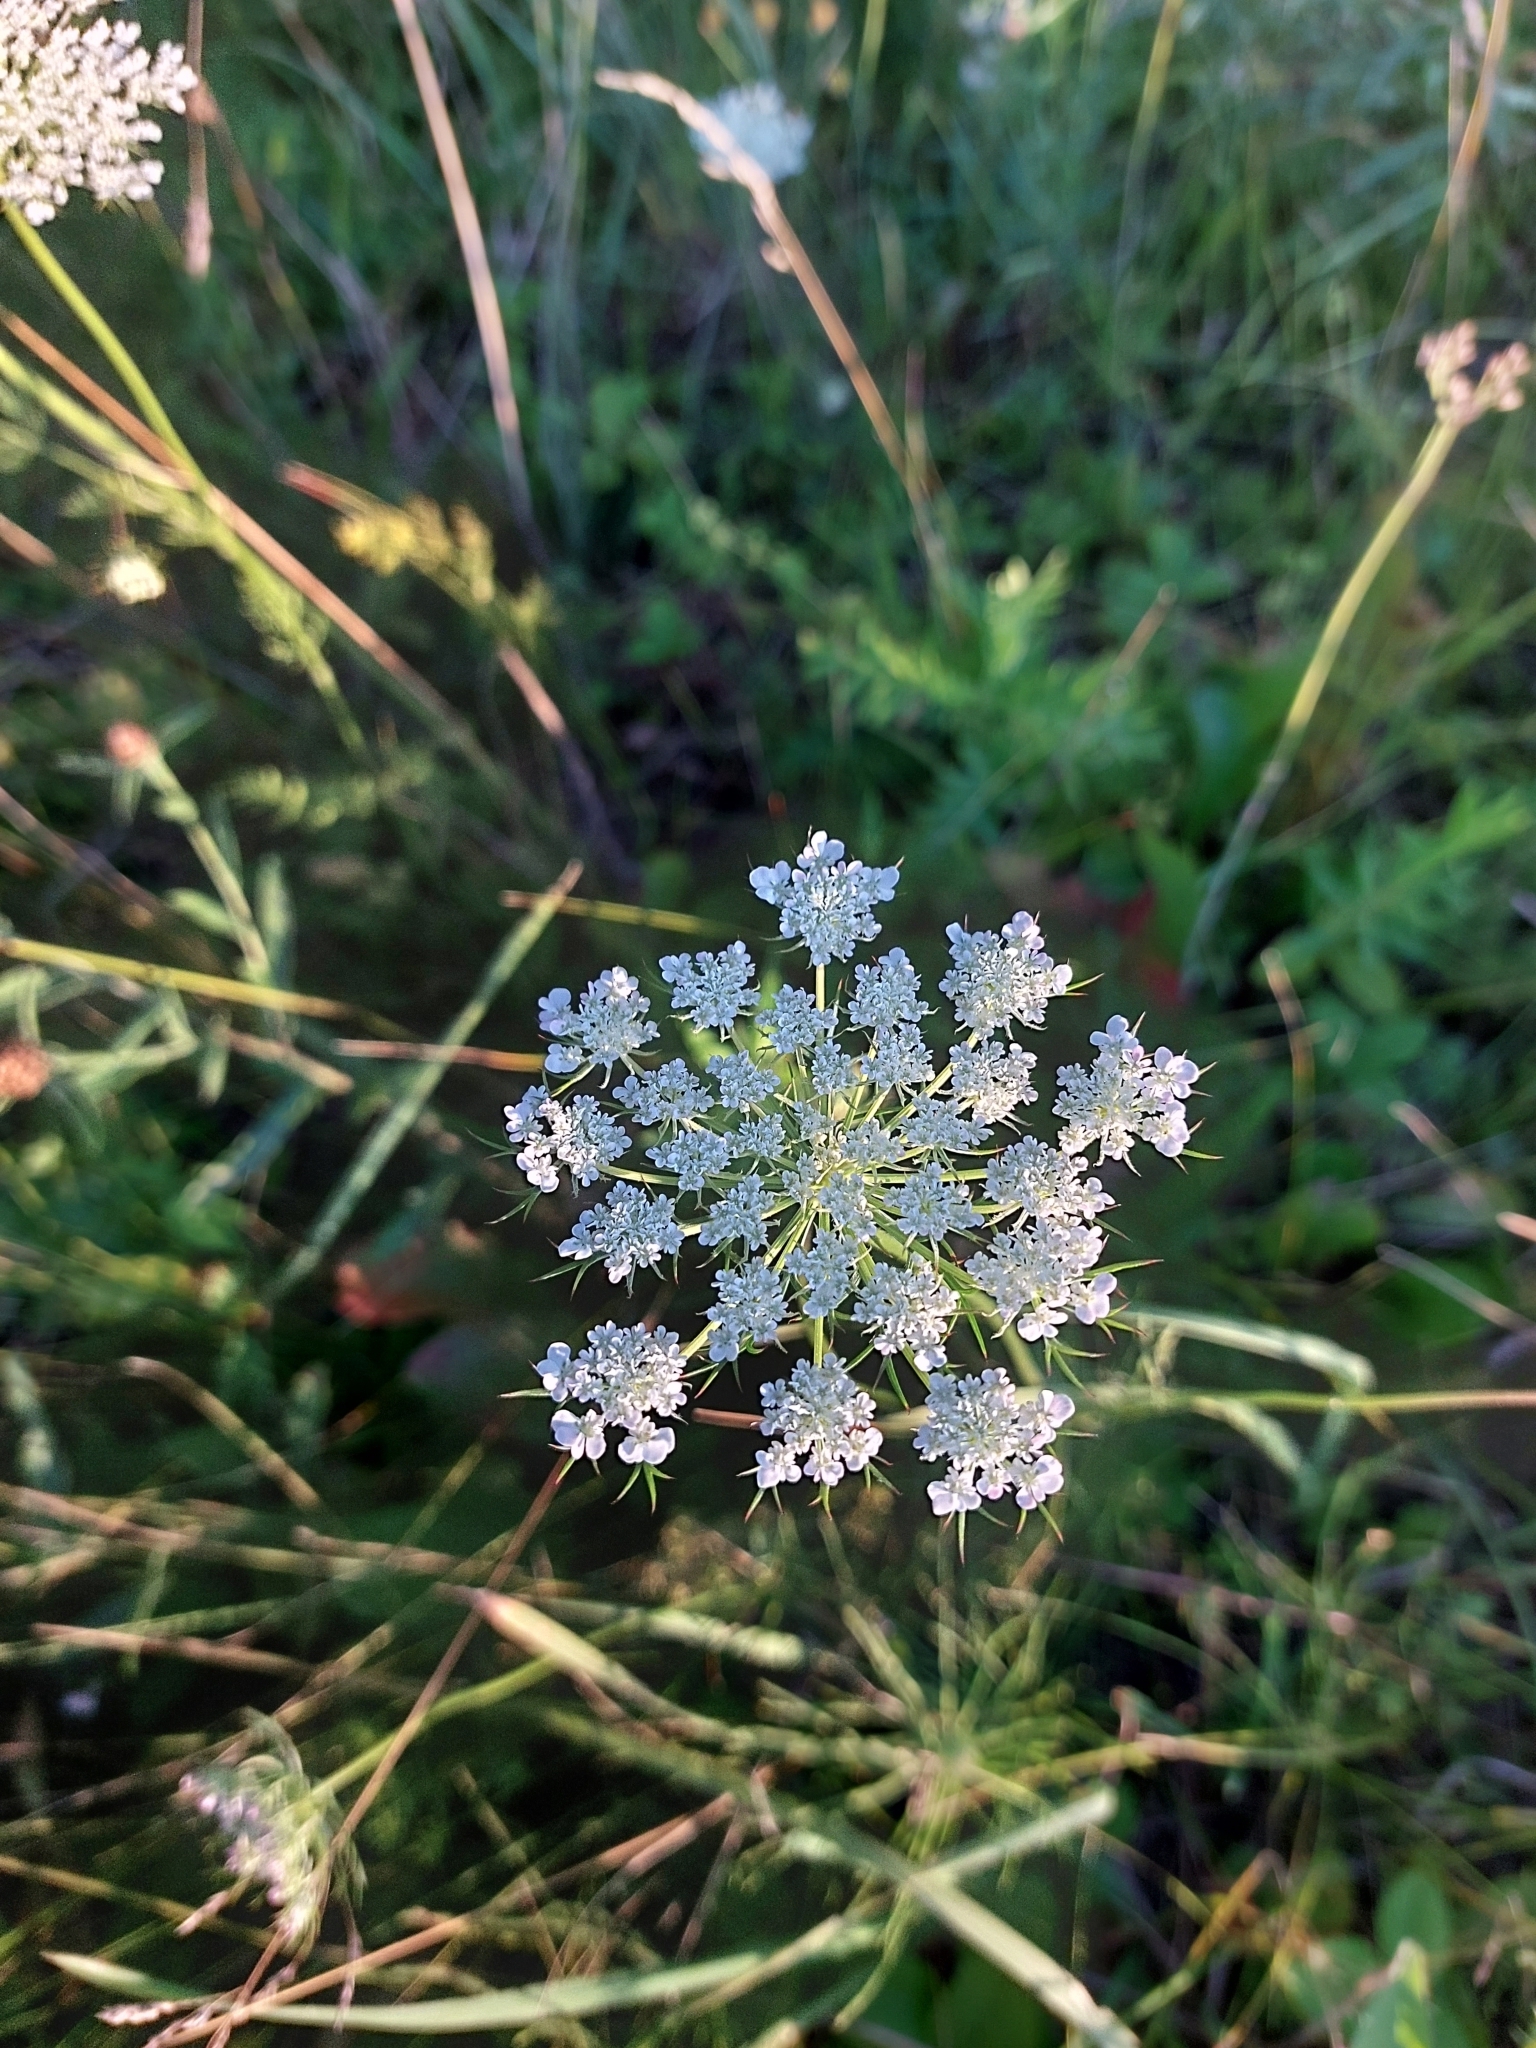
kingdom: Plantae
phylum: Tracheophyta
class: Magnoliopsida
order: Apiales
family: Apiaceae
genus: Daucus
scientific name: Daucus carota
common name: Wild carrot
